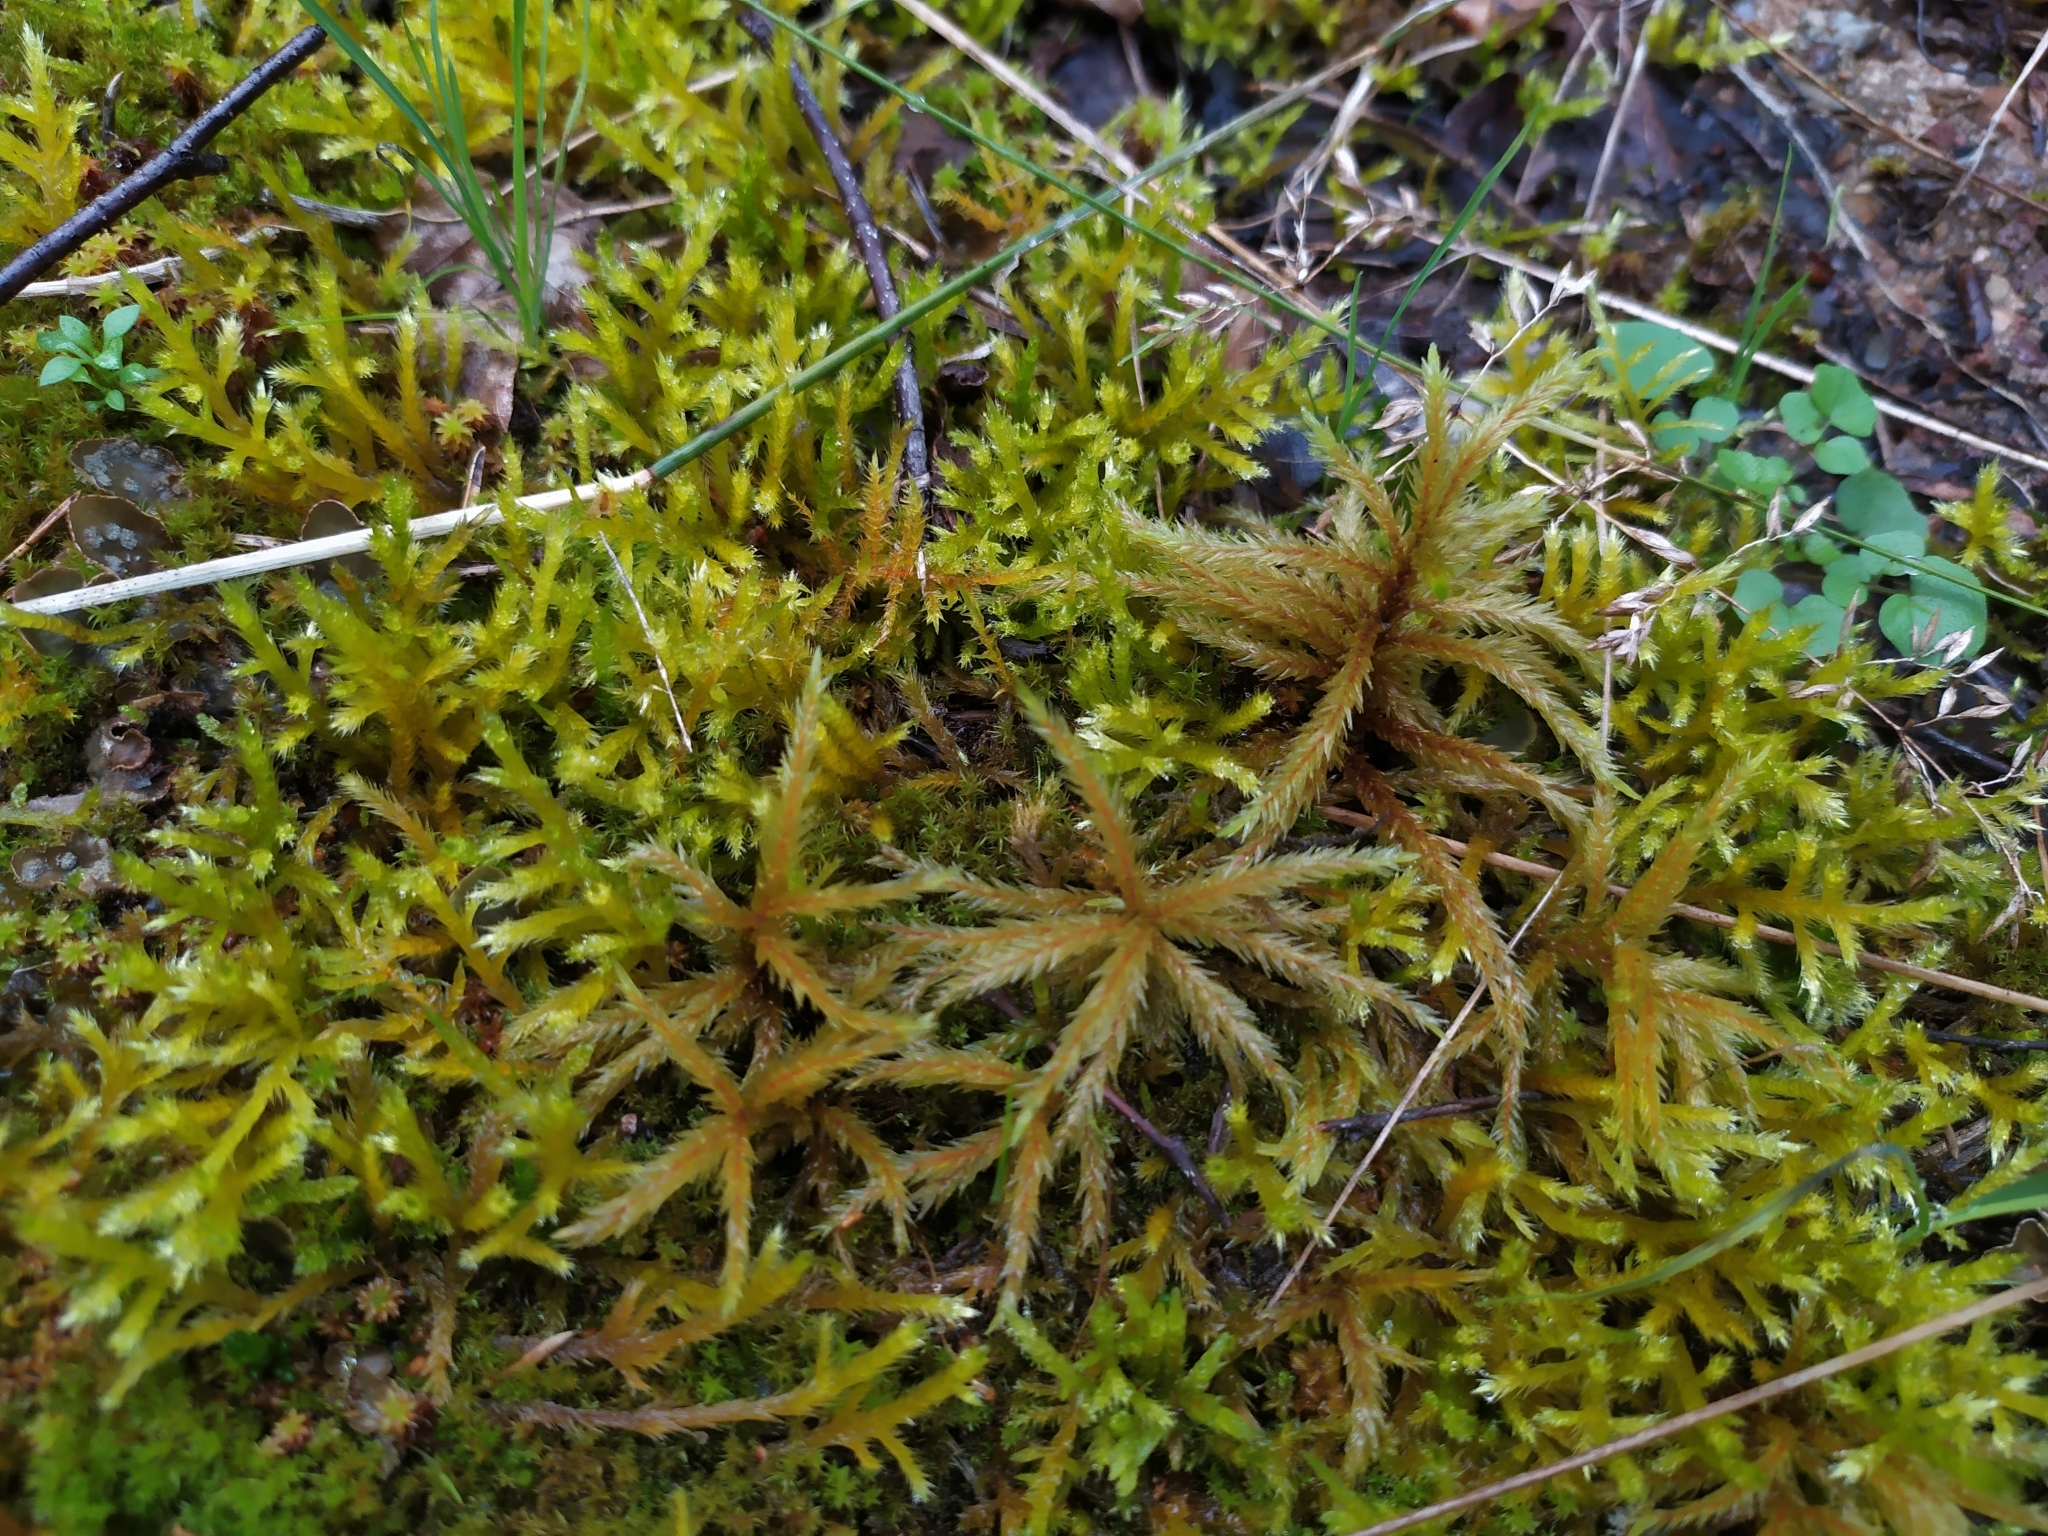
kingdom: Plantae
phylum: Bryophyta
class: Bryopsida
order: Hypnales
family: Climaciaceae
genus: Climacium
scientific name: Climacium dendroides
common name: Northern tree moss
